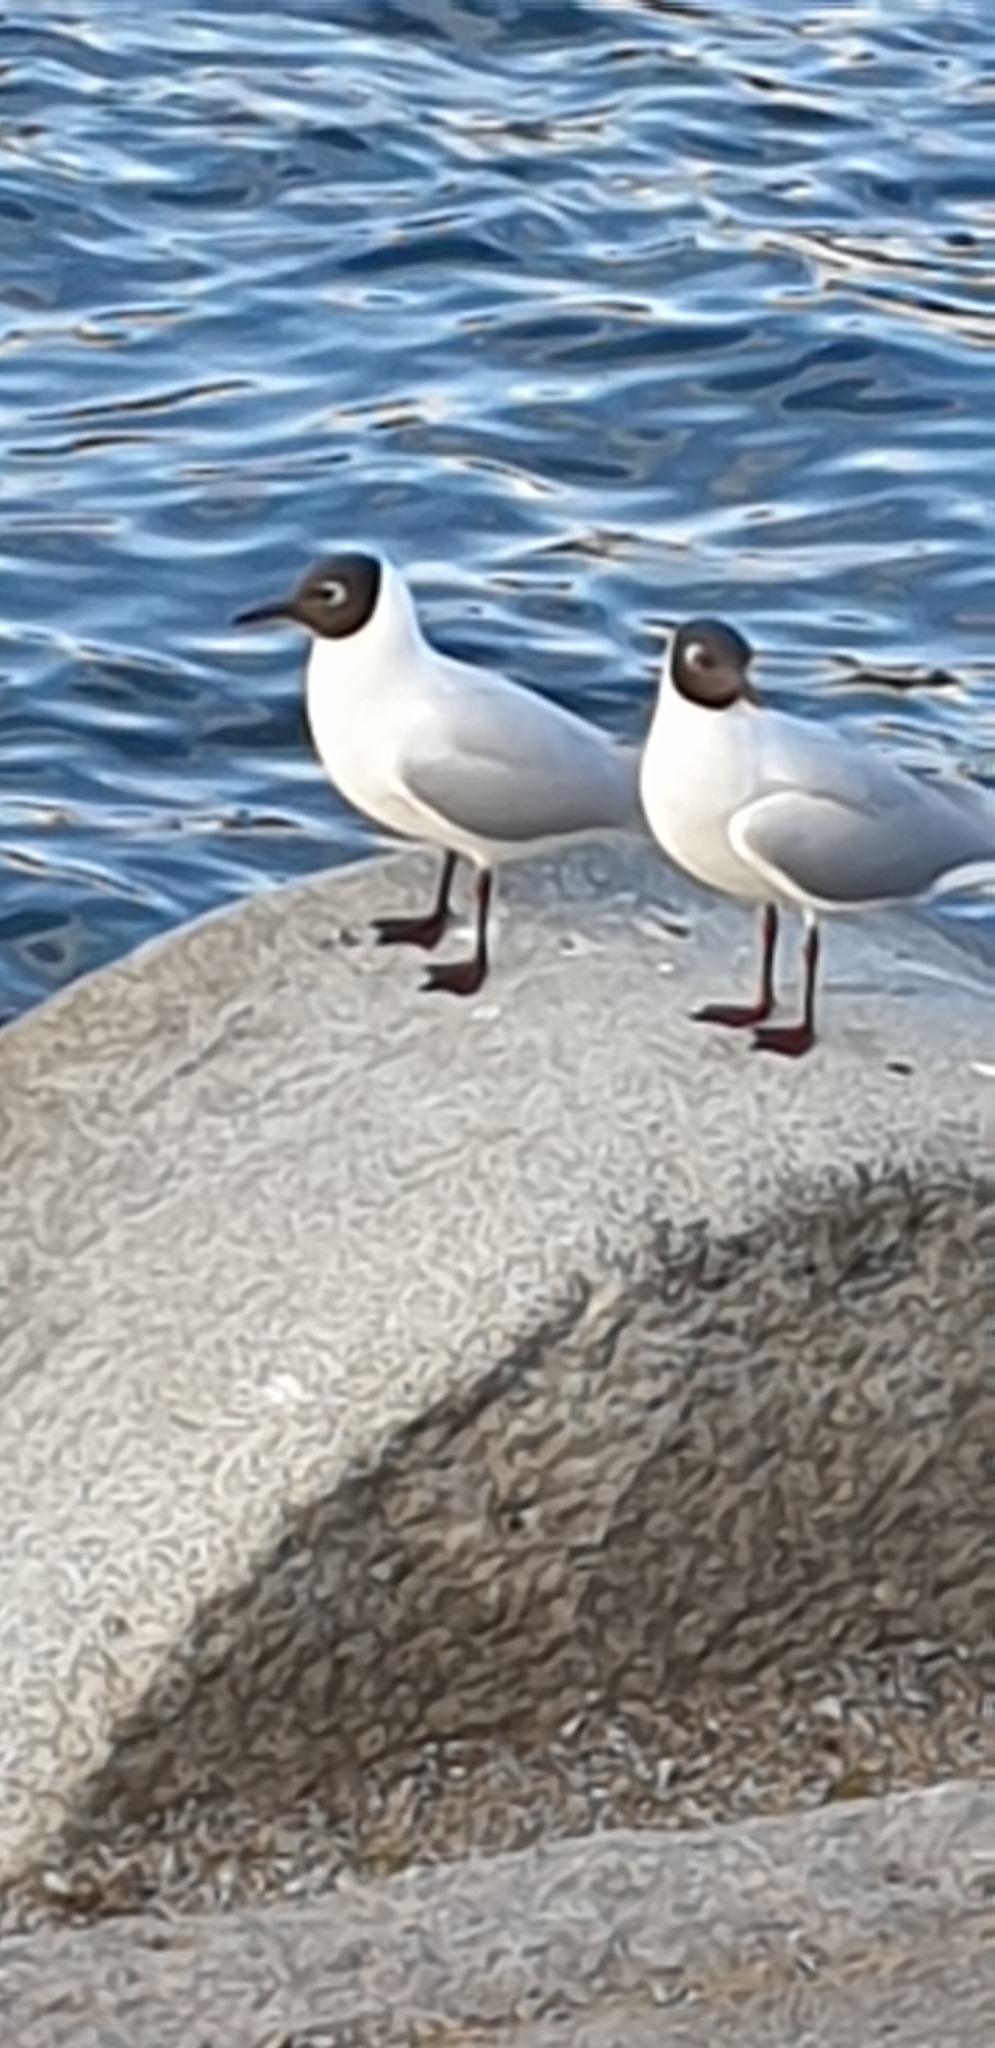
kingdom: Animalia
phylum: Chordata
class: Aves
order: Charadriiformes
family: Laridae
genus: Chroicocephalus
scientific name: Chroicocephalus ridibundus
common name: Black-headed gull
